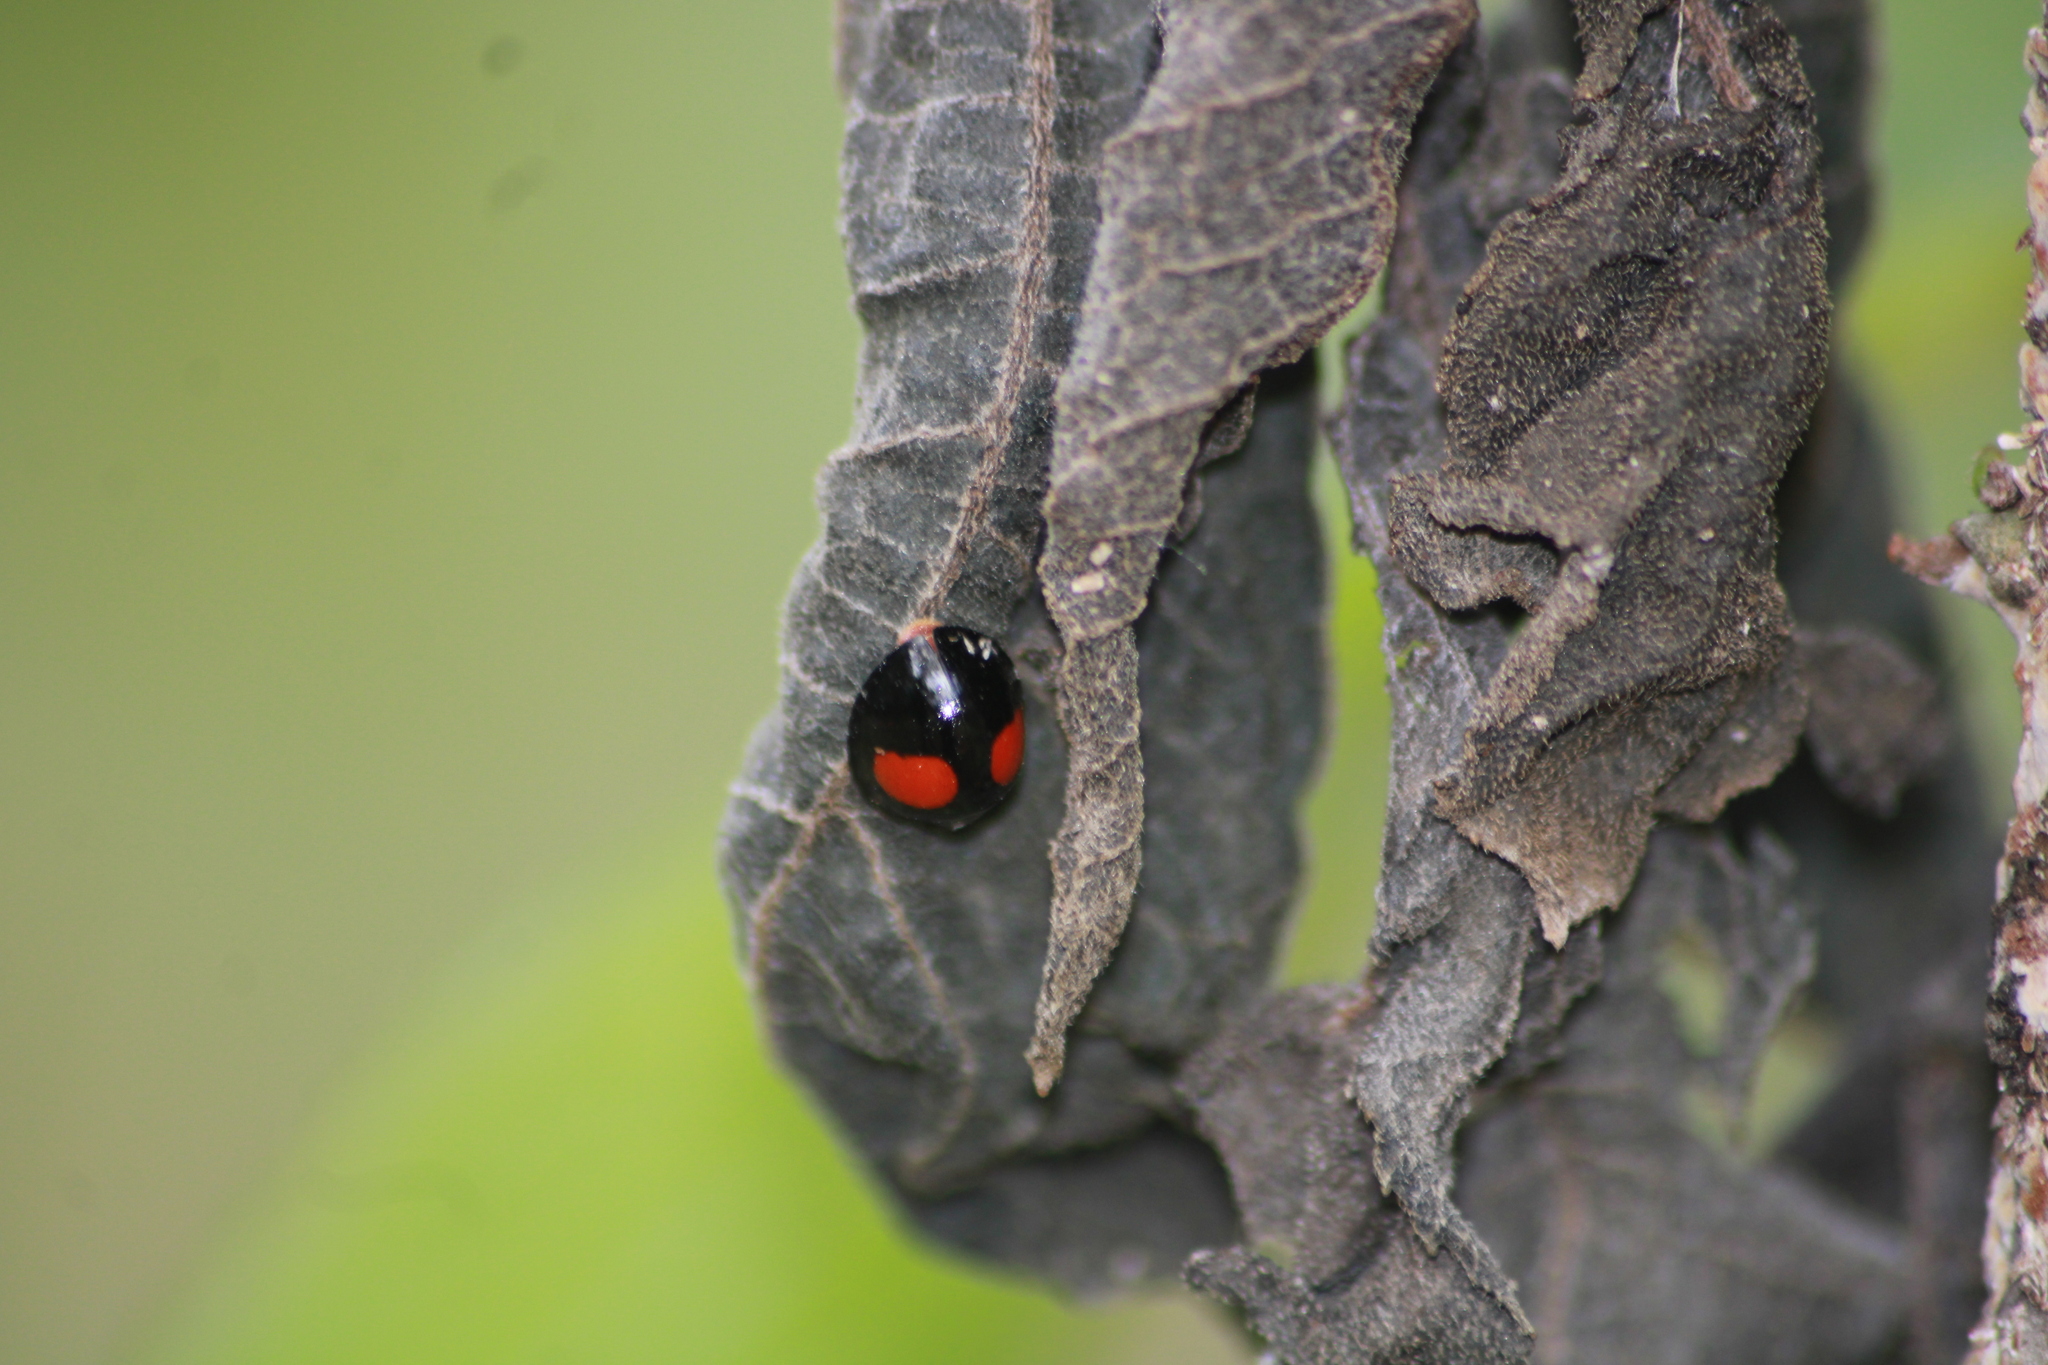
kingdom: Animalia
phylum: Arthropoda
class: Insecta
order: Coleoptera
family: Coccinellidae
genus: Chilocorus
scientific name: Chilocorus cacti
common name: Cactus lady beetle
